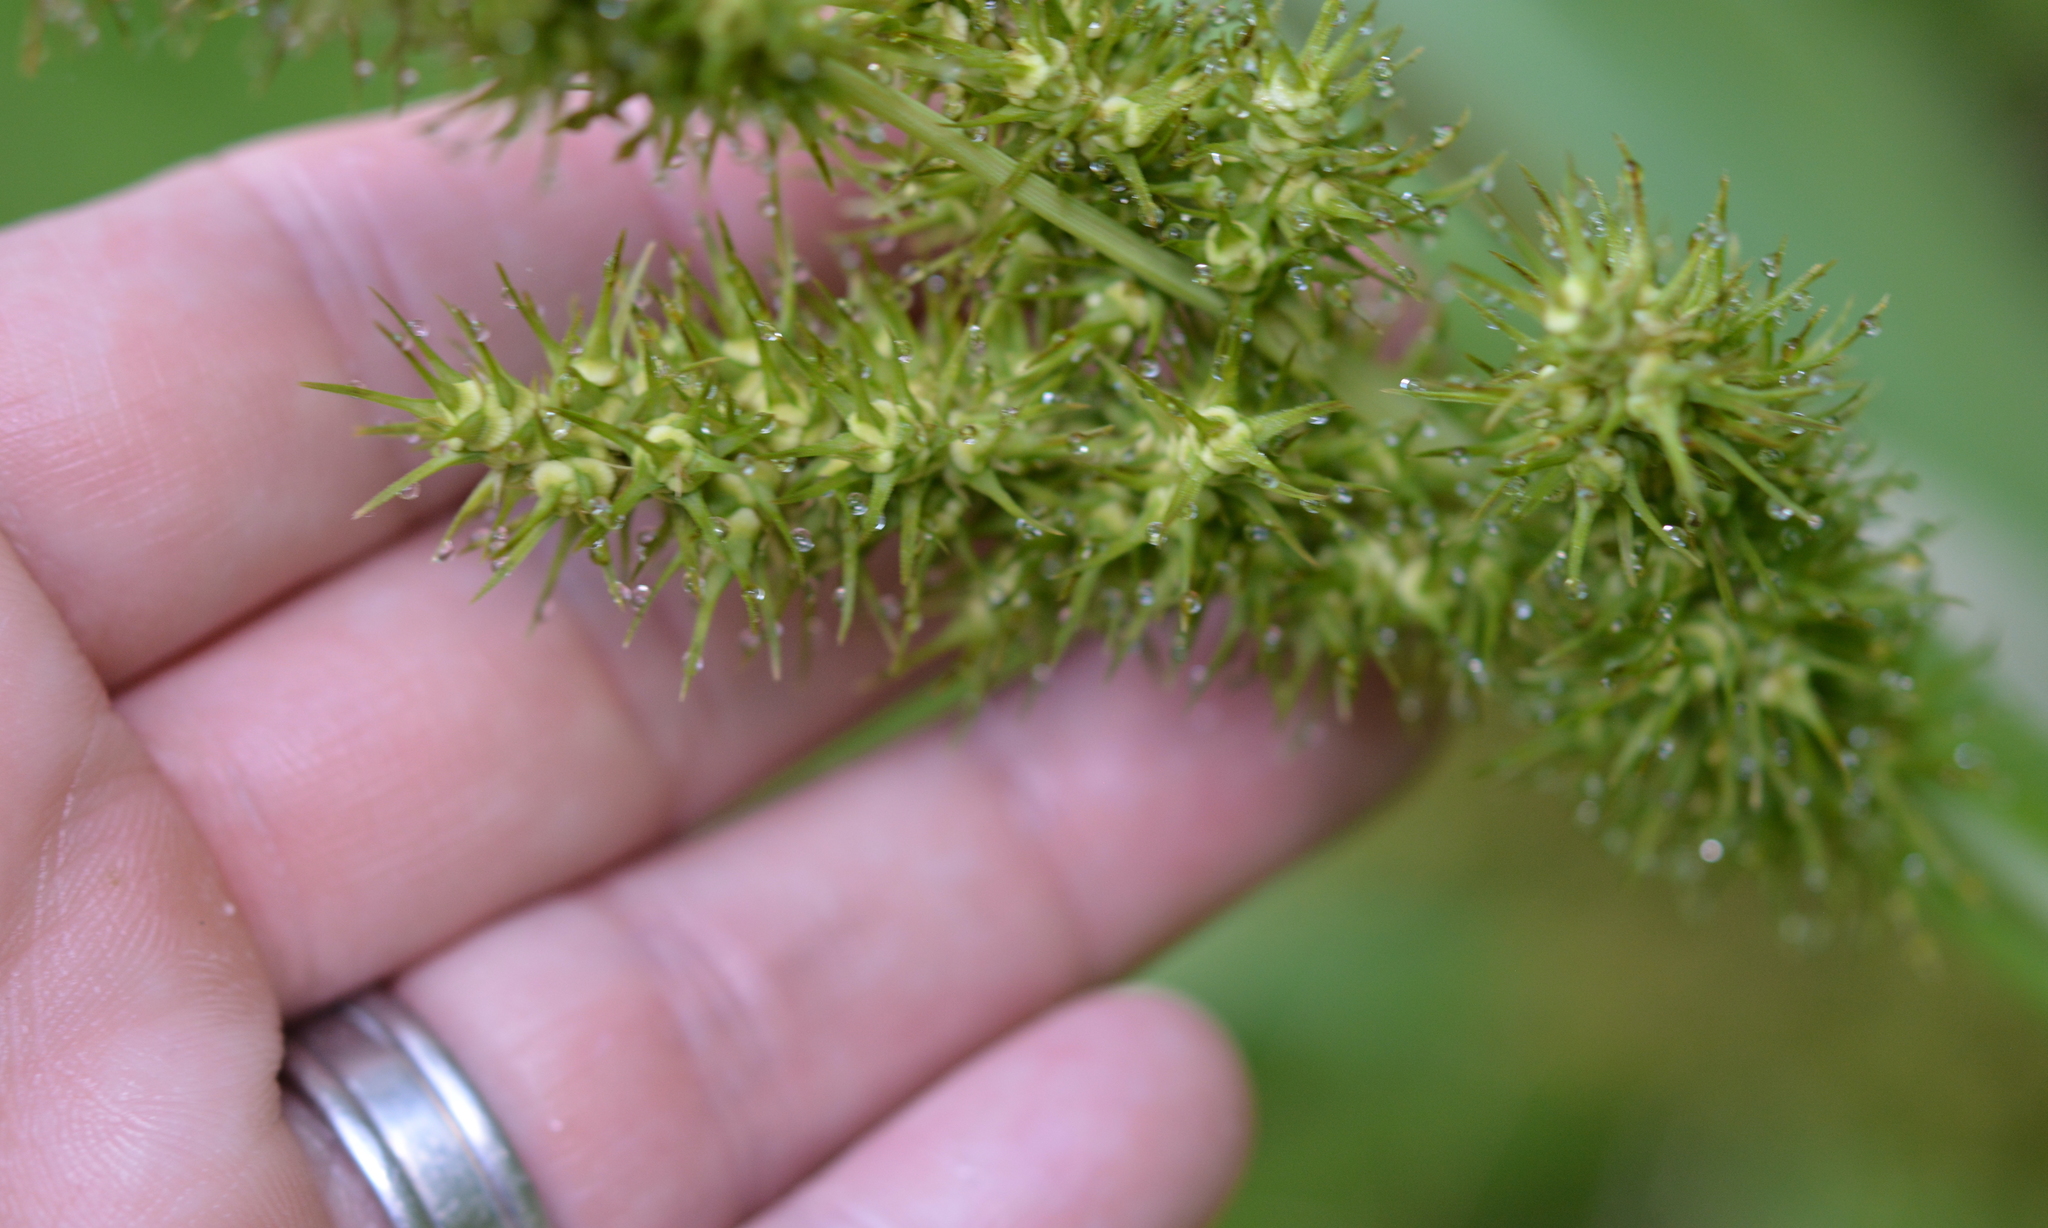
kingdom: Plantae
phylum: Tracheophyta
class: Liliopsida
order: Poales
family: Cyperaceae
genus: Carex
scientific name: Carex crus-corvi
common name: Crow-spur sedge
